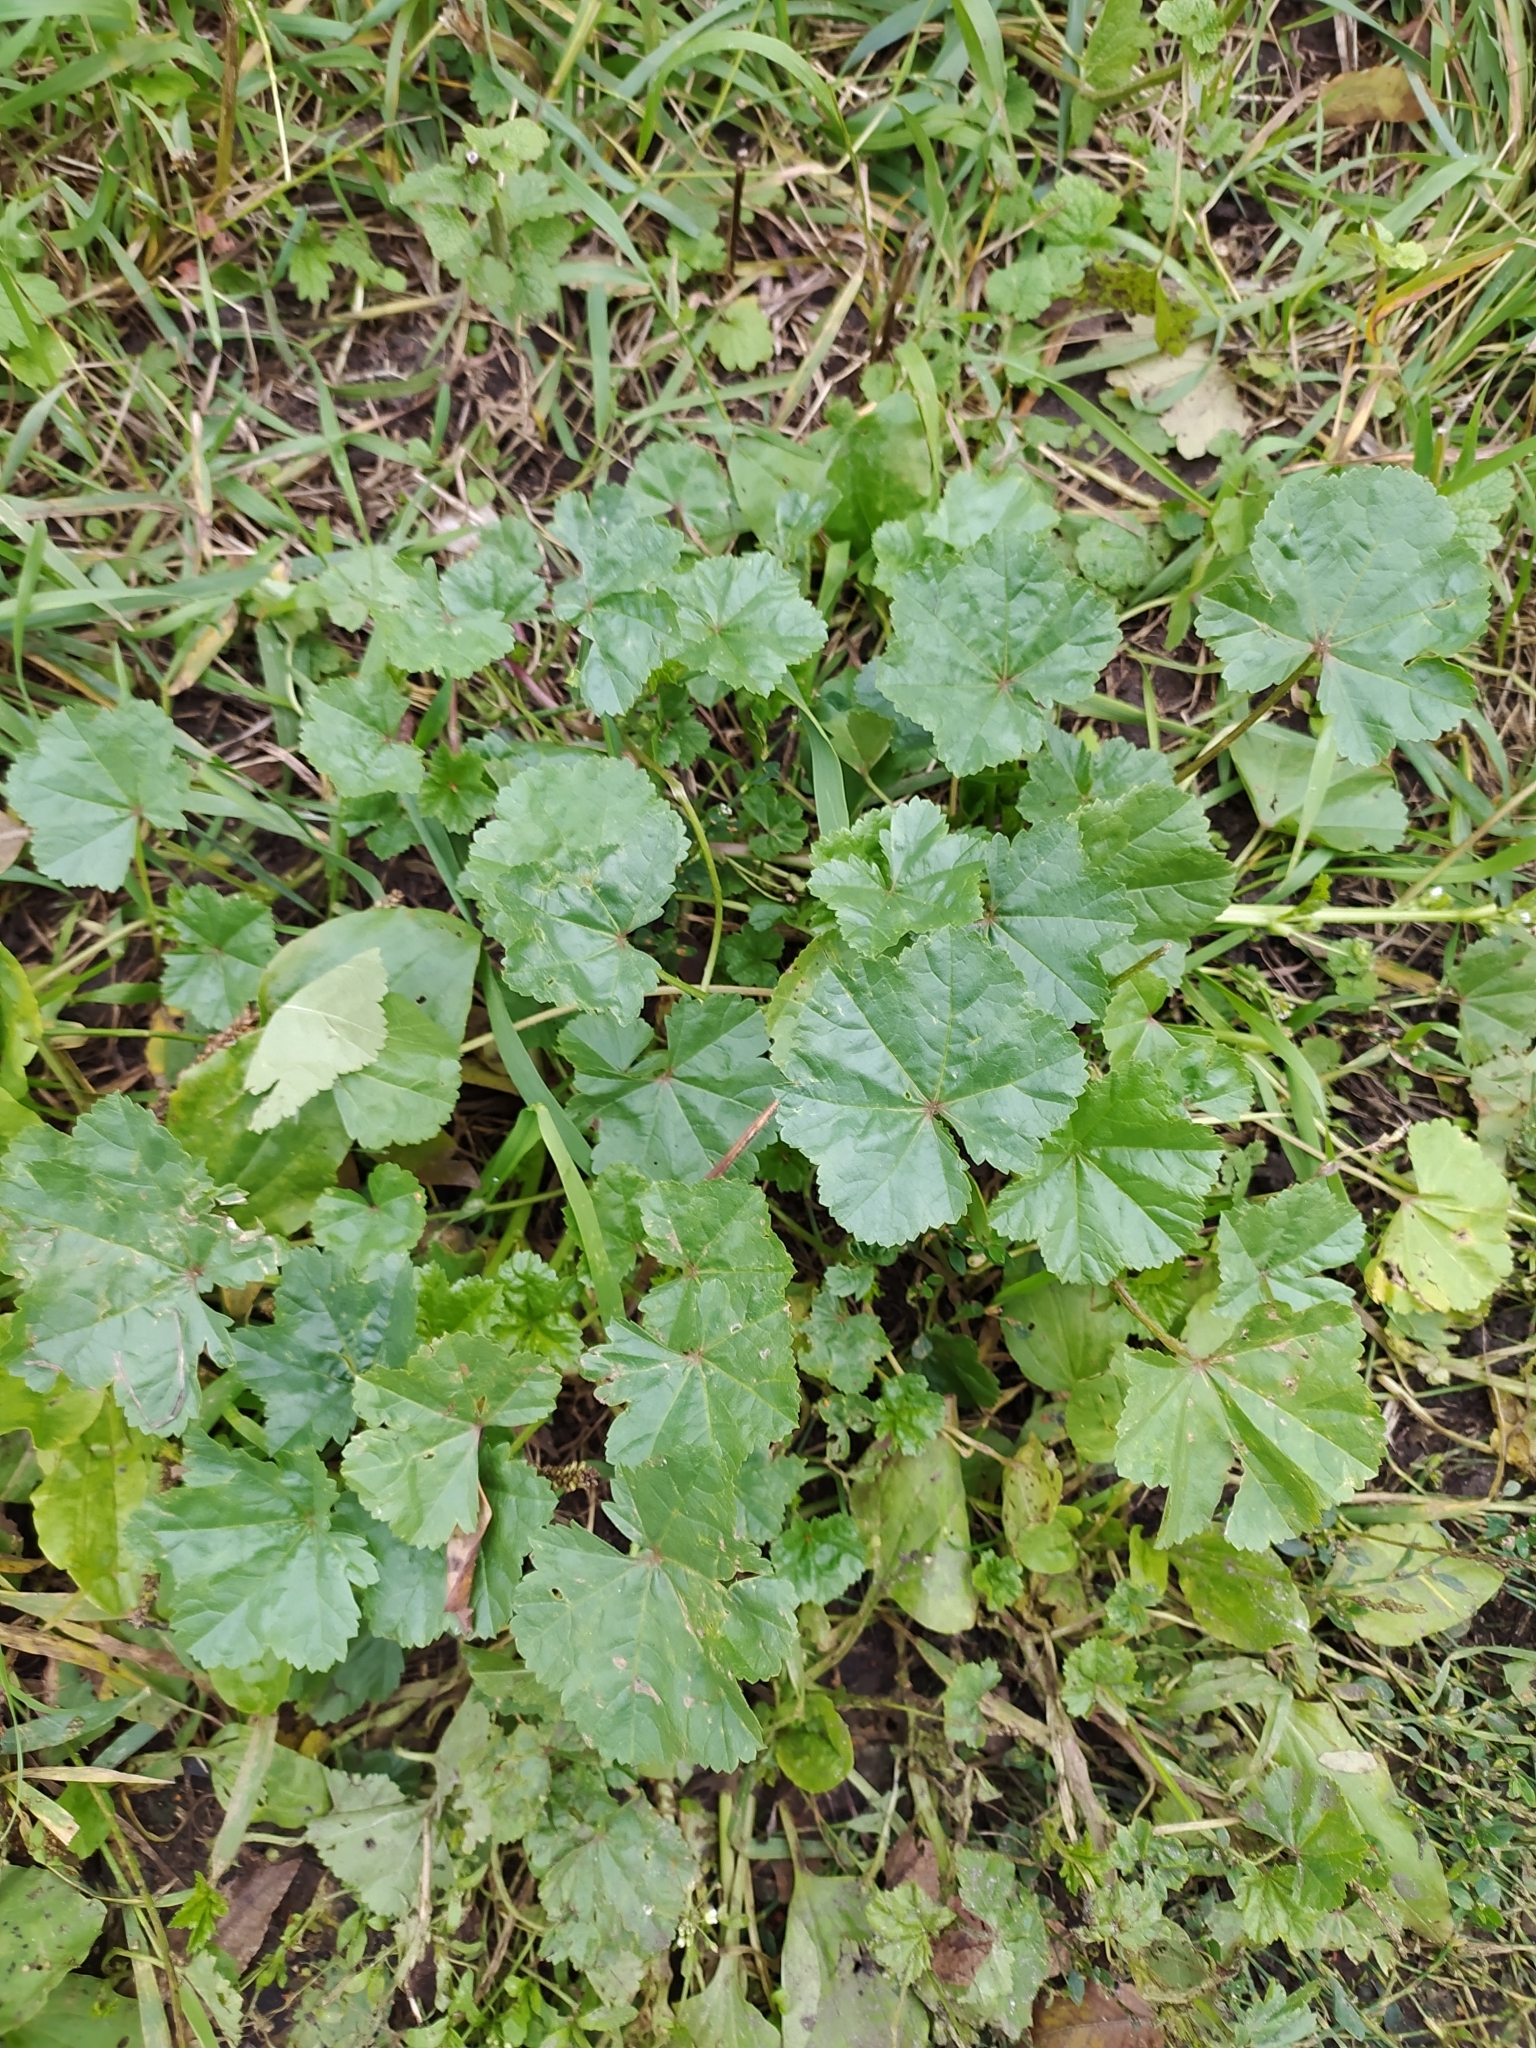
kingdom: Plantae
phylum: Tracheophyta
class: Magnoliopsida
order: Malvales
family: Malvaceae
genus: Malva
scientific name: Malva pusilla
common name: Small mallow
